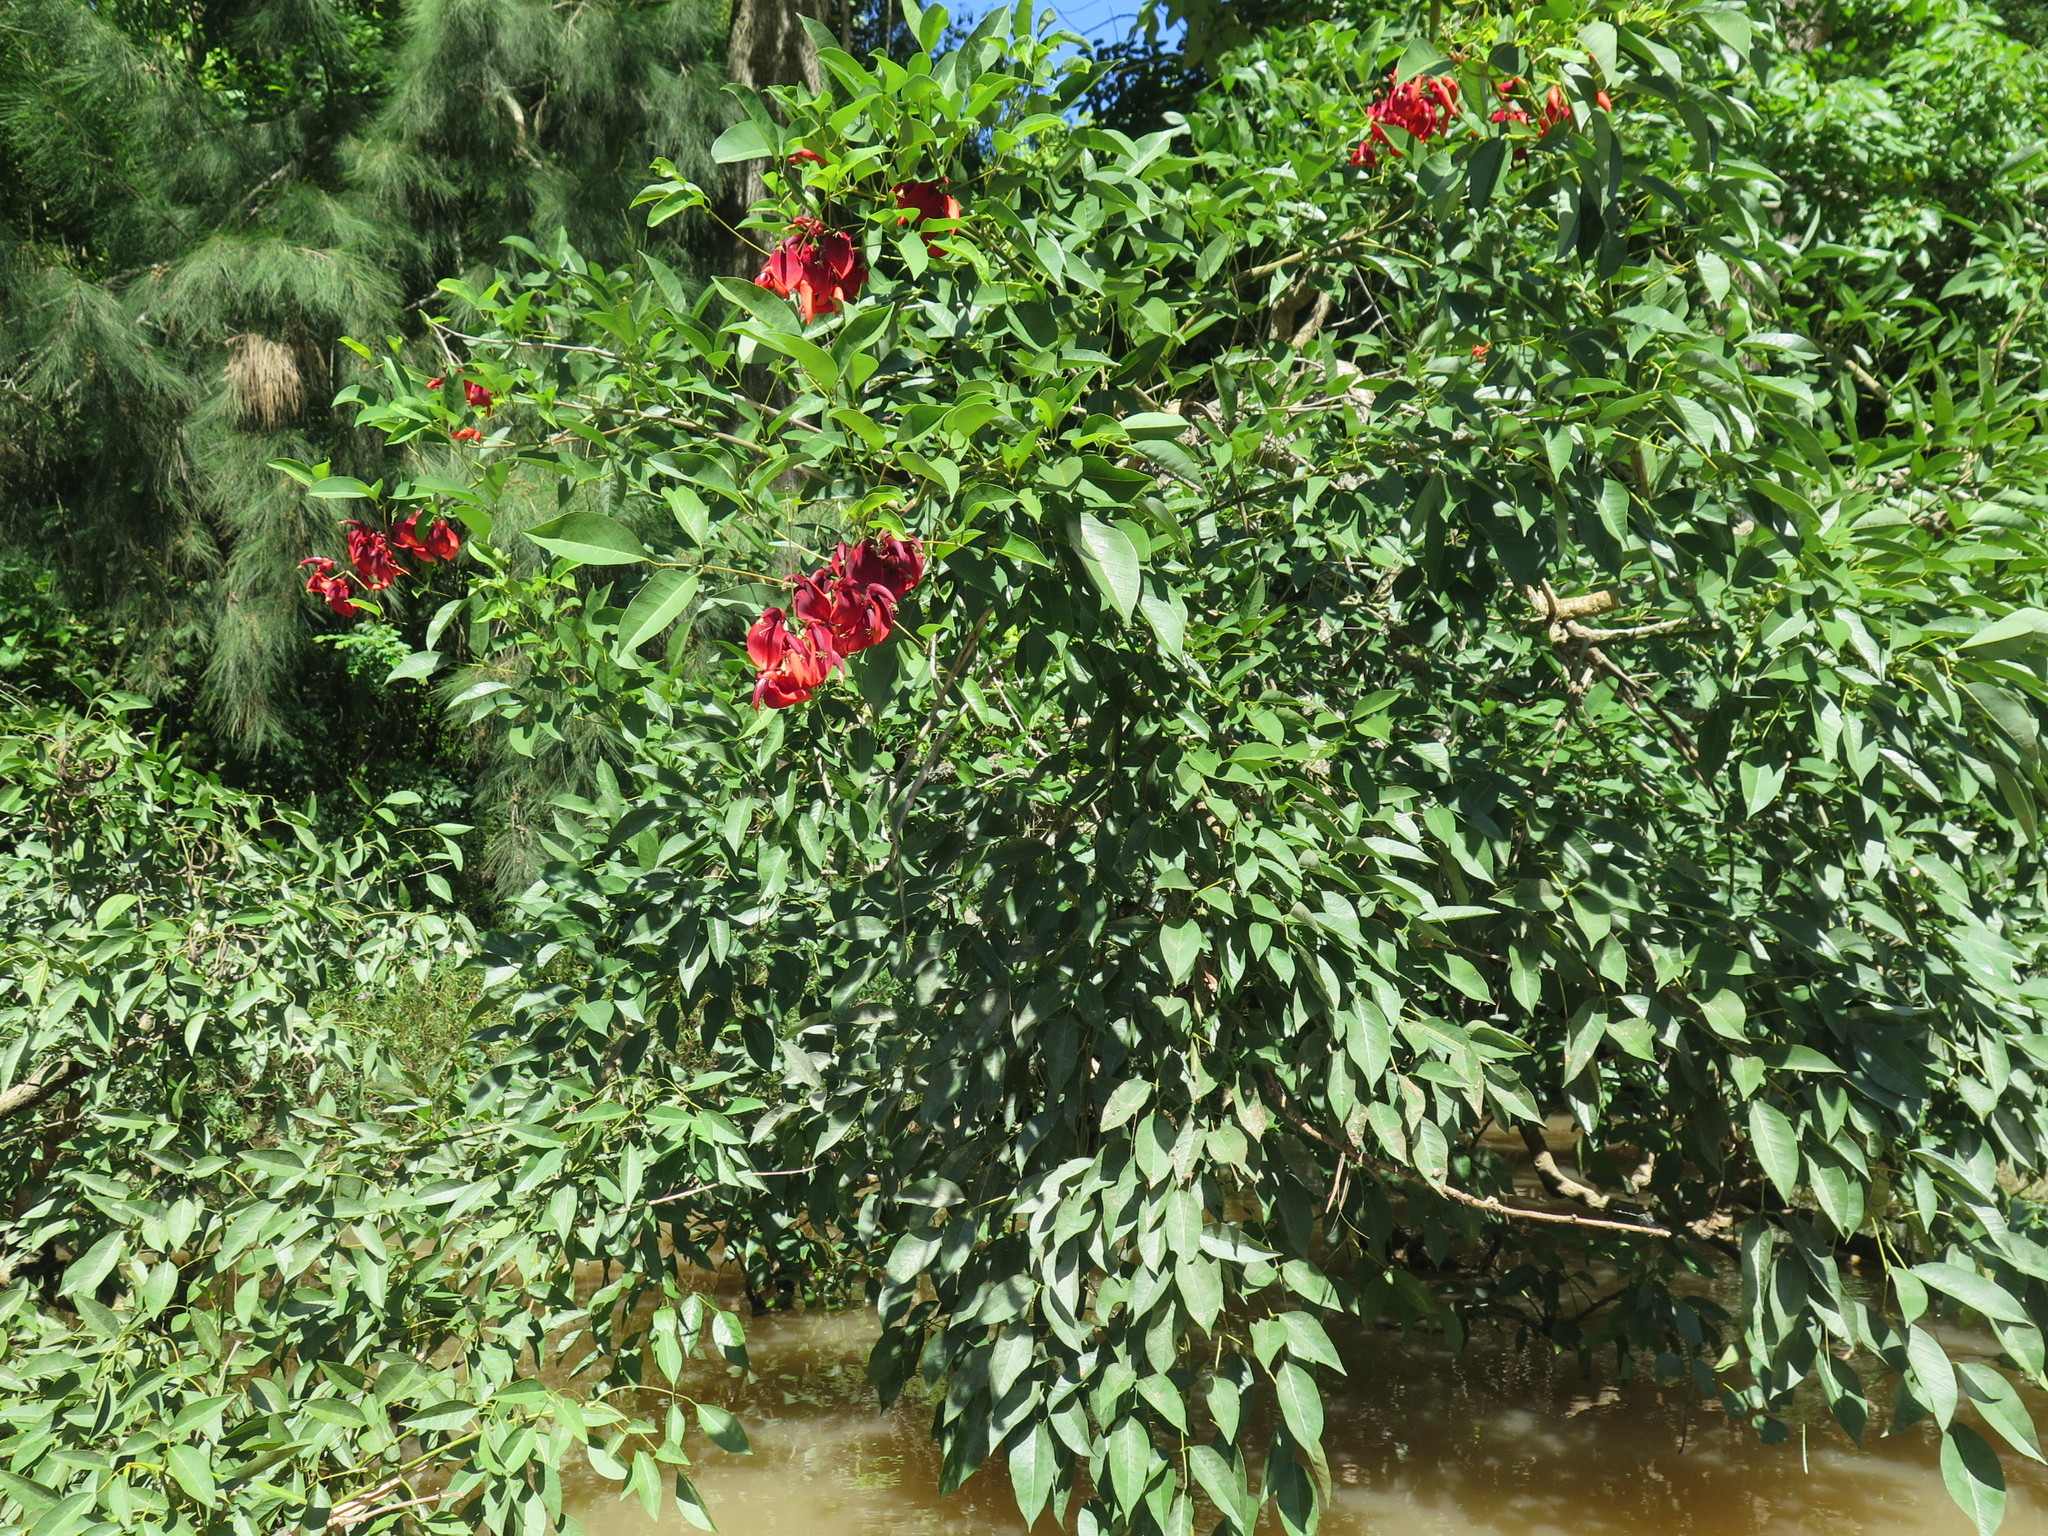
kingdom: Plantae
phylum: Tracheophyta
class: Magnoliopsida
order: Fabales
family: Fabaceae
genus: Erythrina
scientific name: Erythrina crista-galli
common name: Cockspur coral tree
